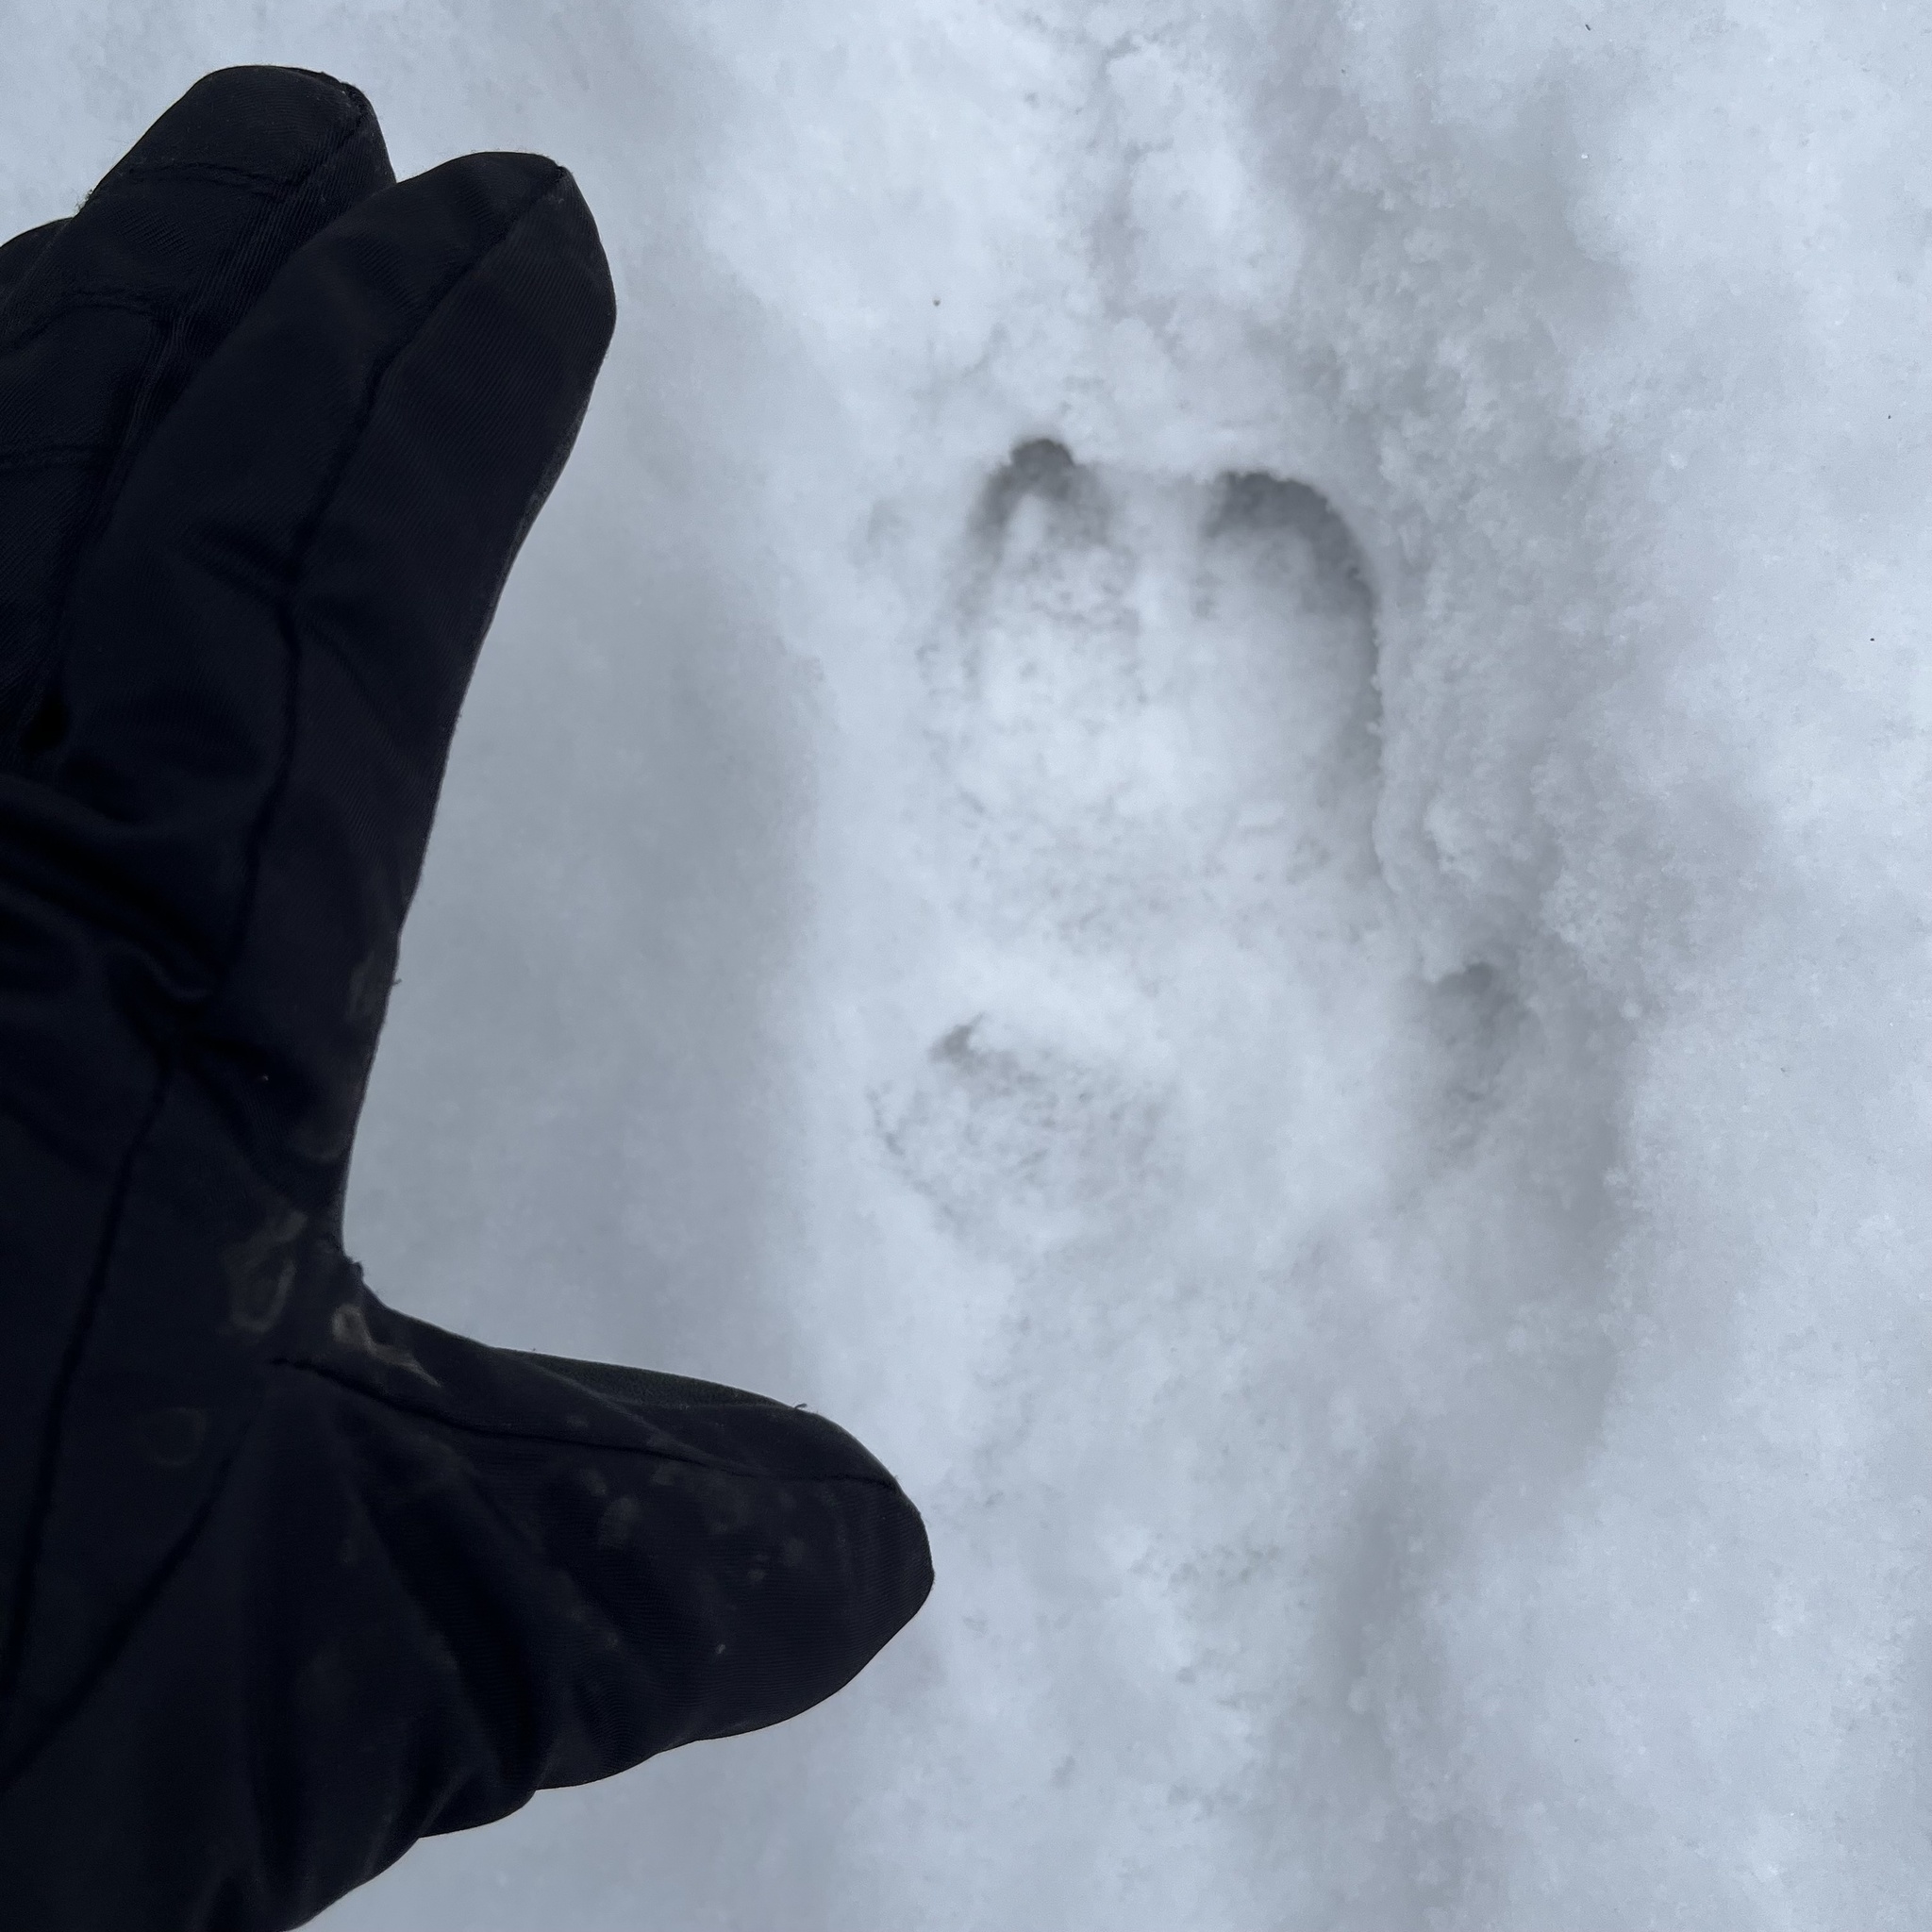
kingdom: Animalia
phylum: Chordata
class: Mammalia
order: Artiodactyla
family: Suidae
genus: Sus
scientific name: Sus scrofa
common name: Wild boar
